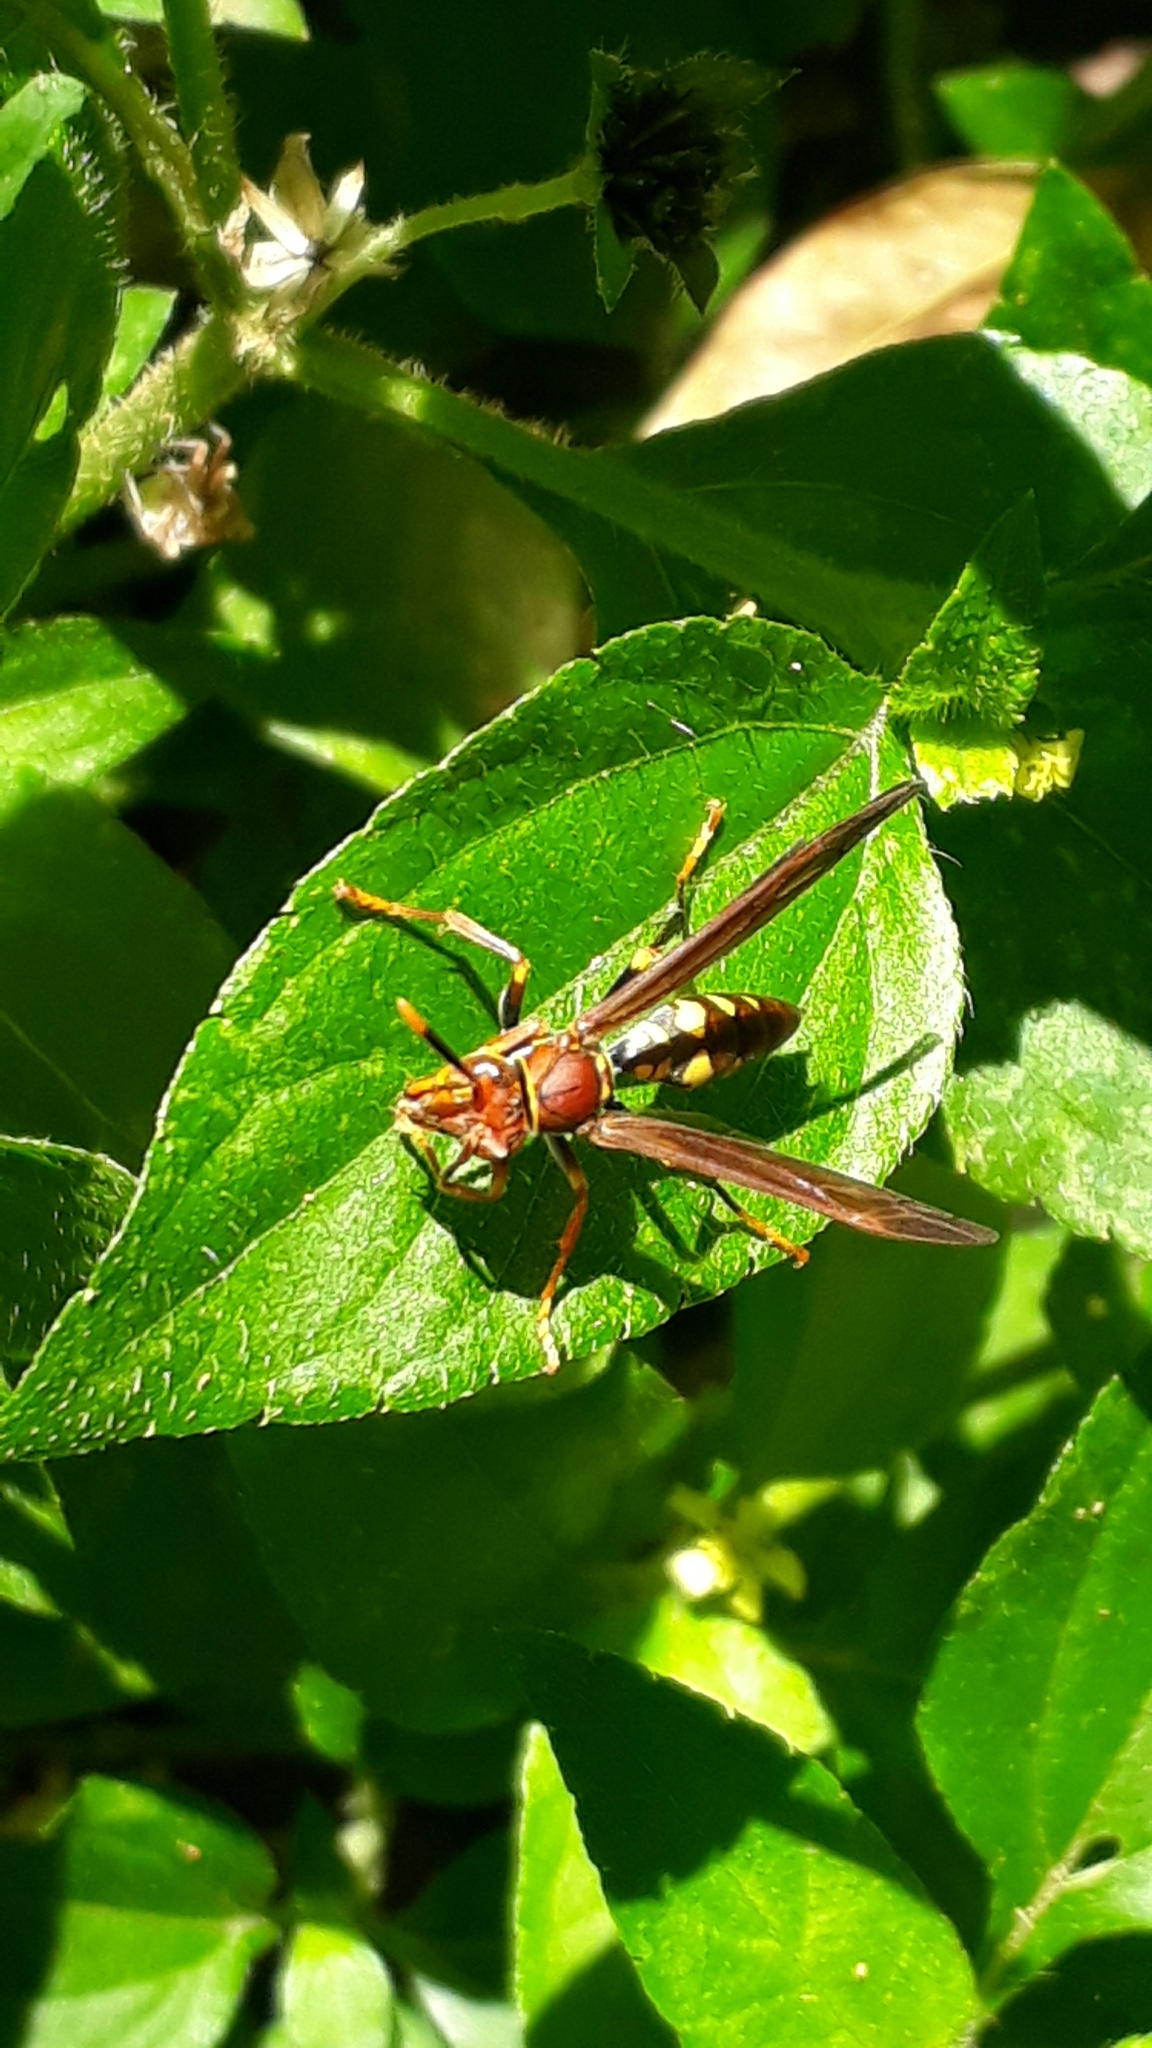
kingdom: Animalia
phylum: Arthropoda
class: Insecta
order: Hymenoptera
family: Eumenidae
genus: Polistes
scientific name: Polistes versicolor
